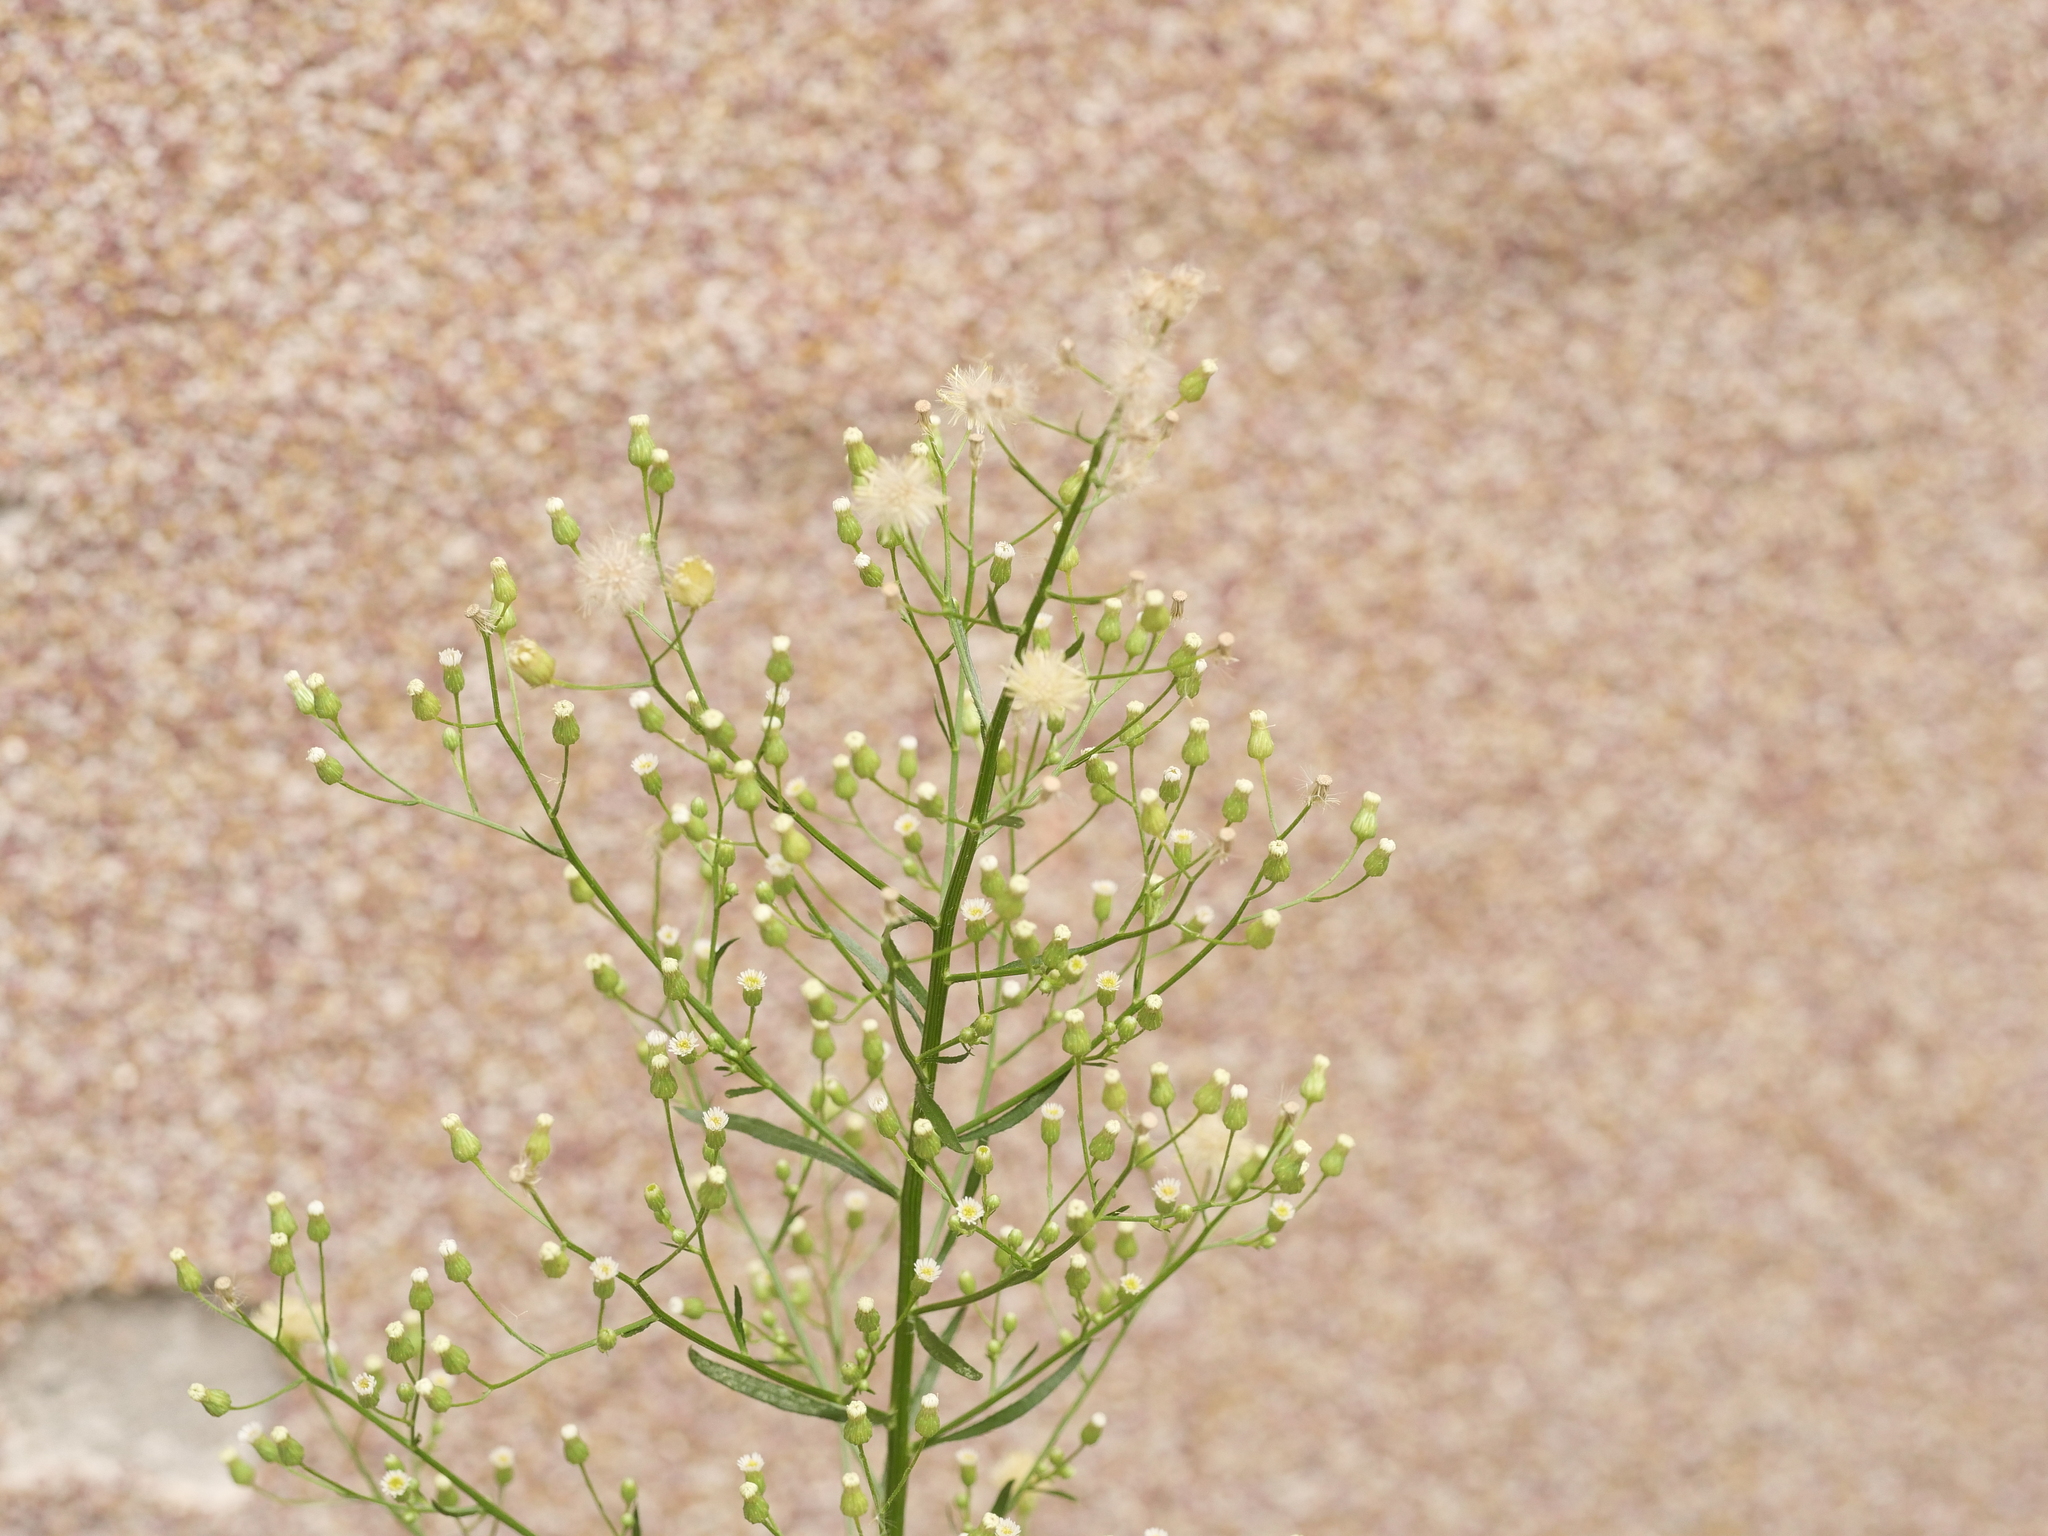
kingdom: Plantae
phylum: Tracheophyta
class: Magnoliopsida
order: Asterales
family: Asteraceae
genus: Erigeron
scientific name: Erigeron canadensis
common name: Canadian fleabane
